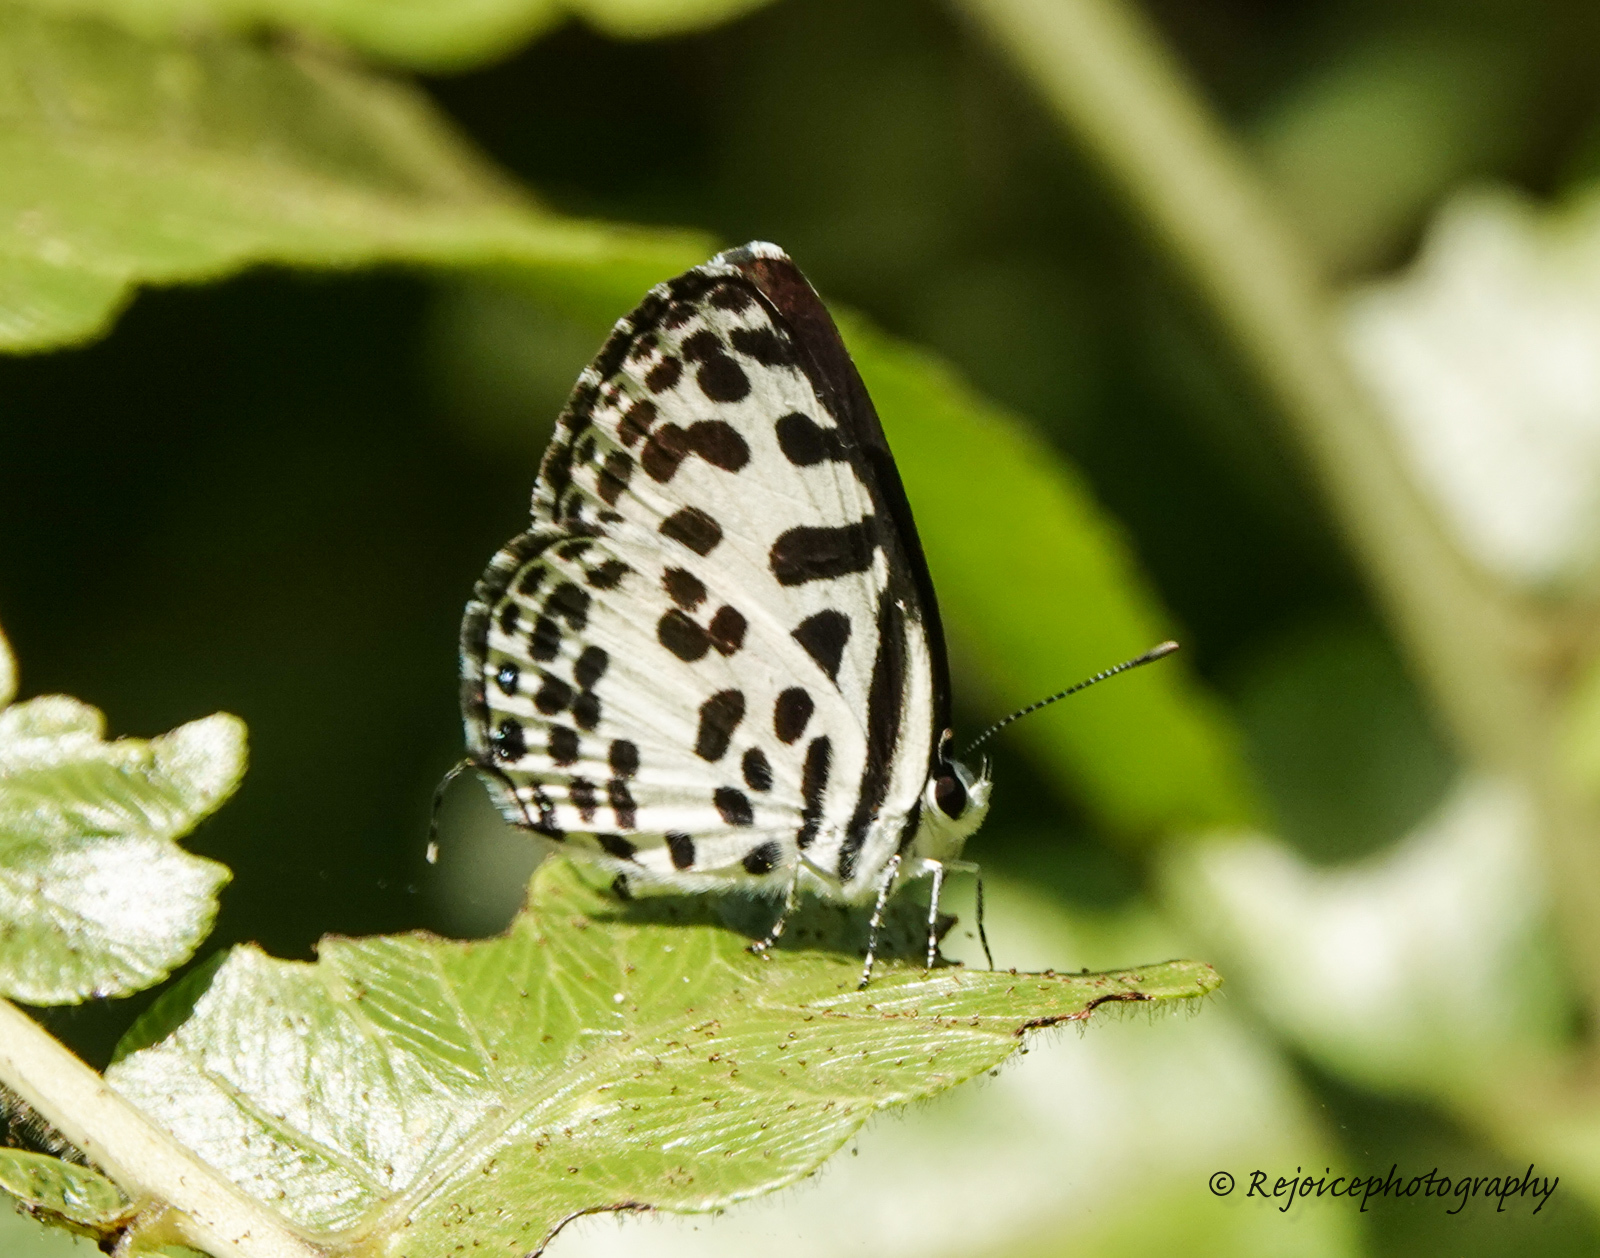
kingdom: Animalia
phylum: Arthropoda
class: Insecta
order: Lepidoptera
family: Lycaenidae
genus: Castalius
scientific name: Castalius rosimon
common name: Common pierrot
